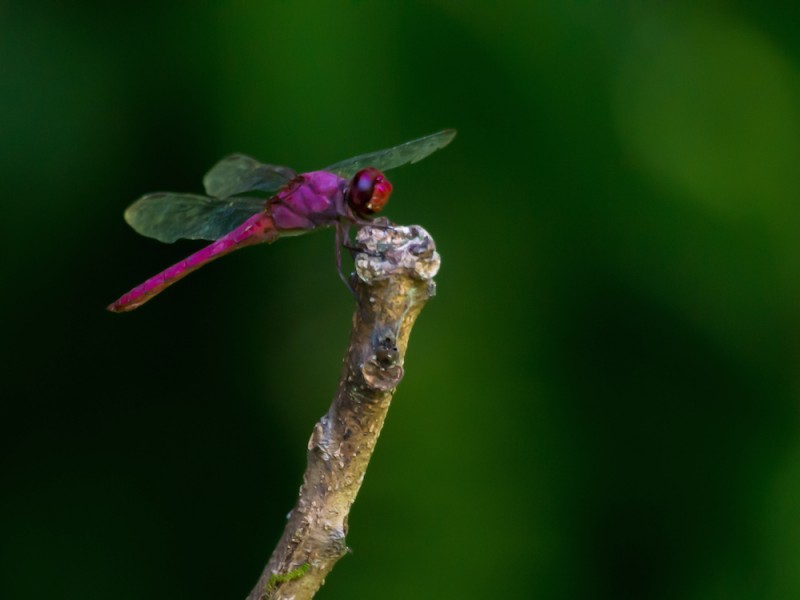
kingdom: Animalia
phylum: Arthropoda
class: Insecta
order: Odonata
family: Libellulidae
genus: Orthemis
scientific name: Orthemis discolor
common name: Carmine skimmer
